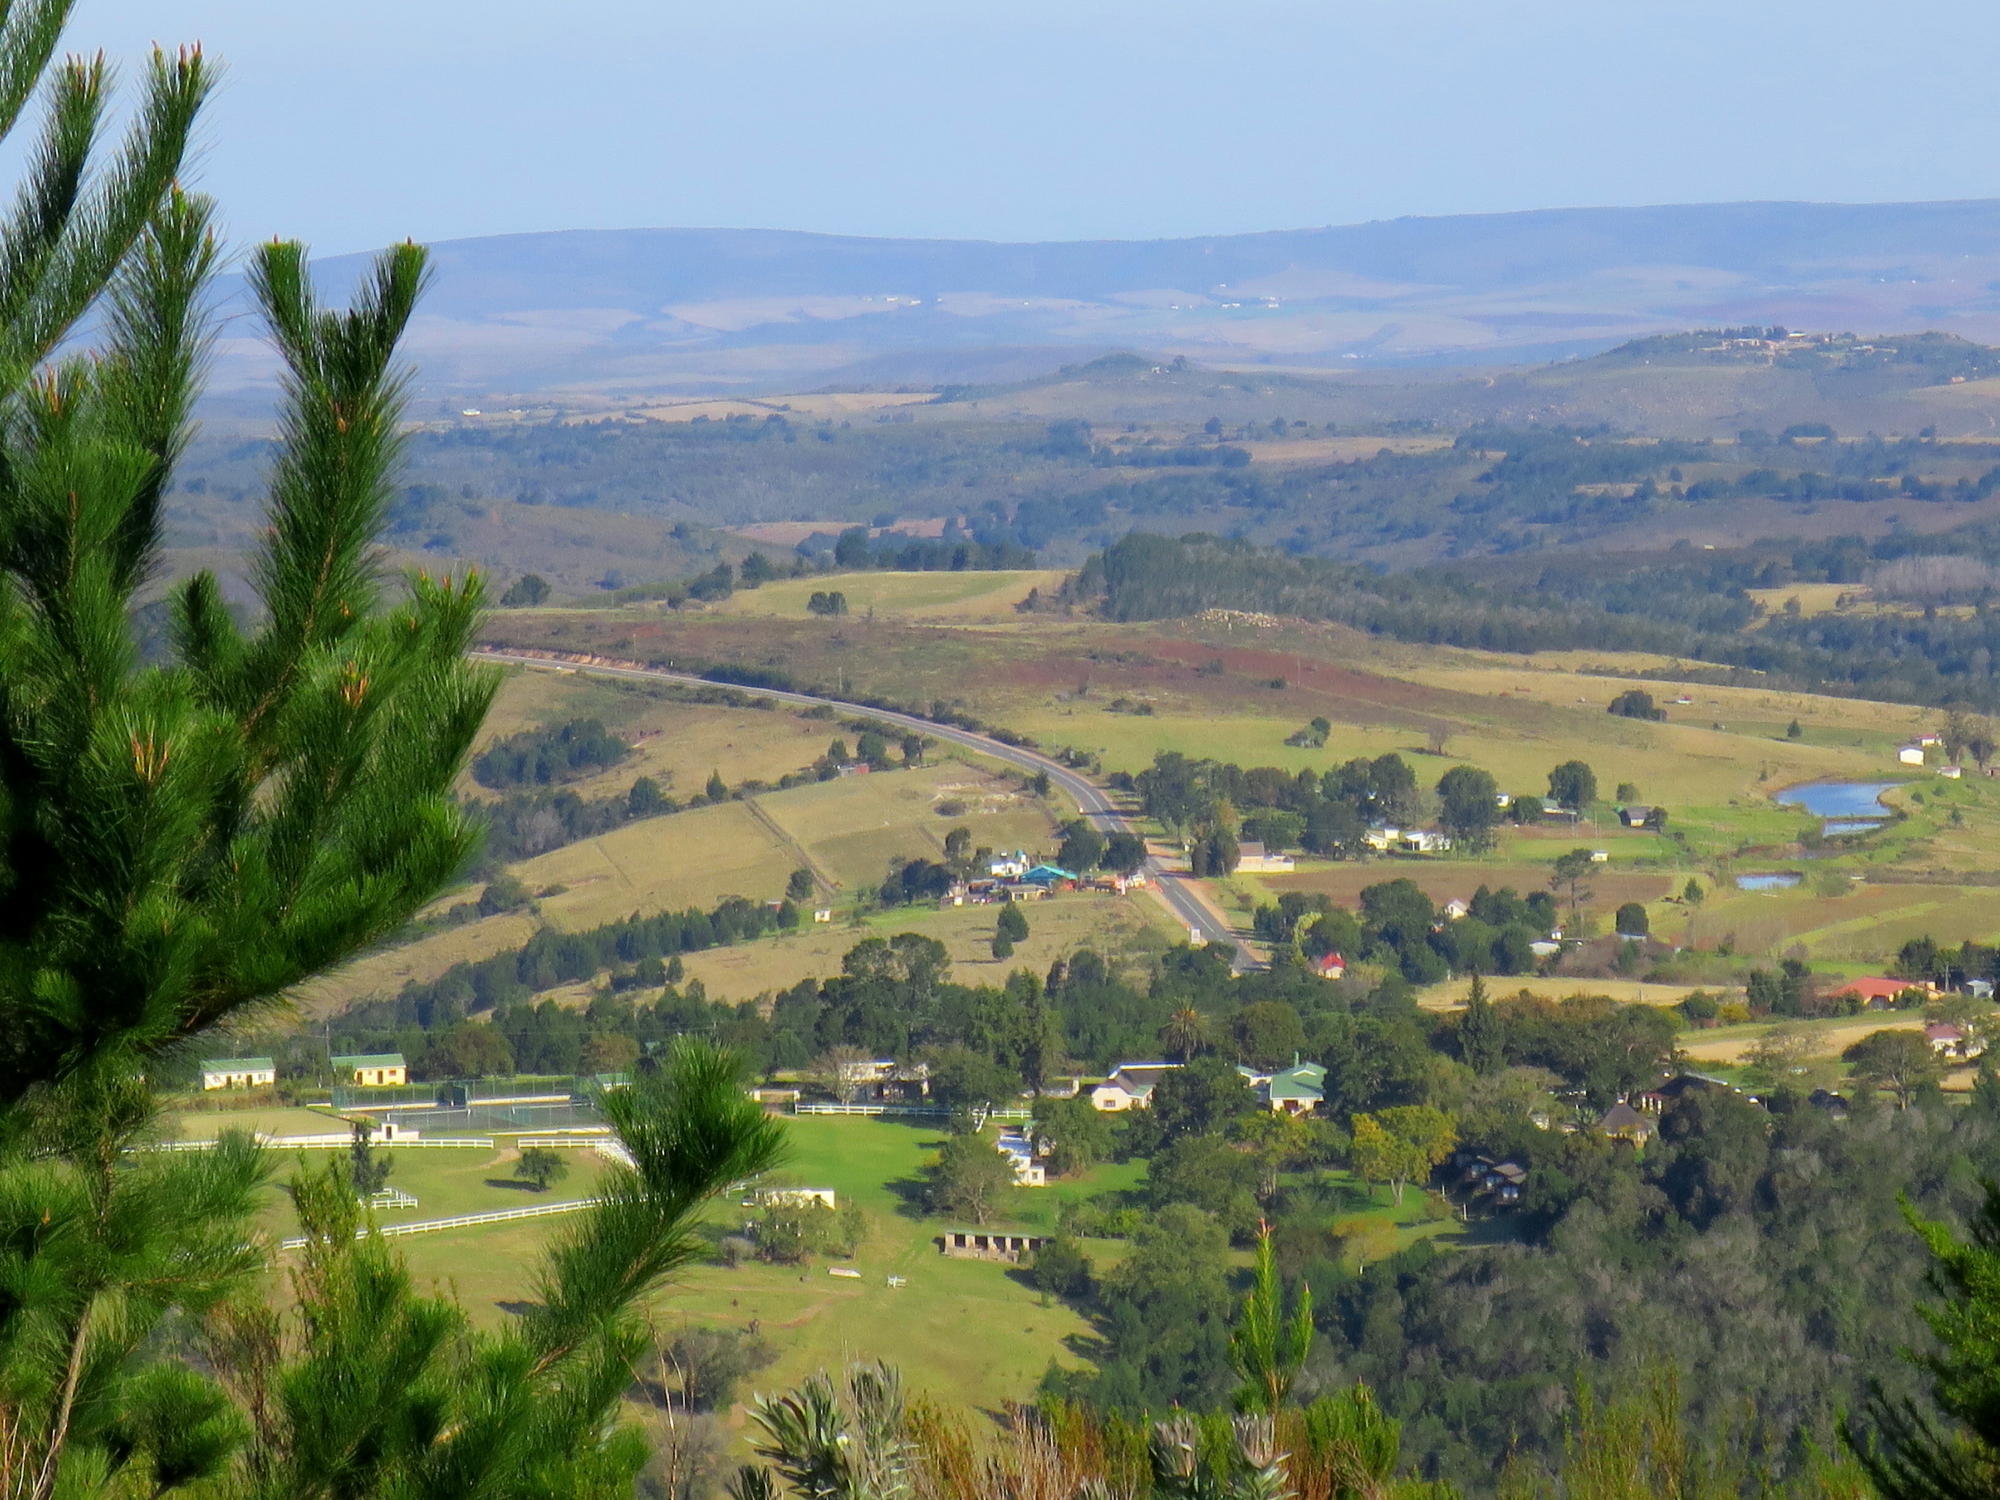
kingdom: Plantae
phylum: Tracheophyta
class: Pinopsida
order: Pinales
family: Pinaceae
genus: Pinus
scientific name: Pinus radiata
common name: Monterey pine
